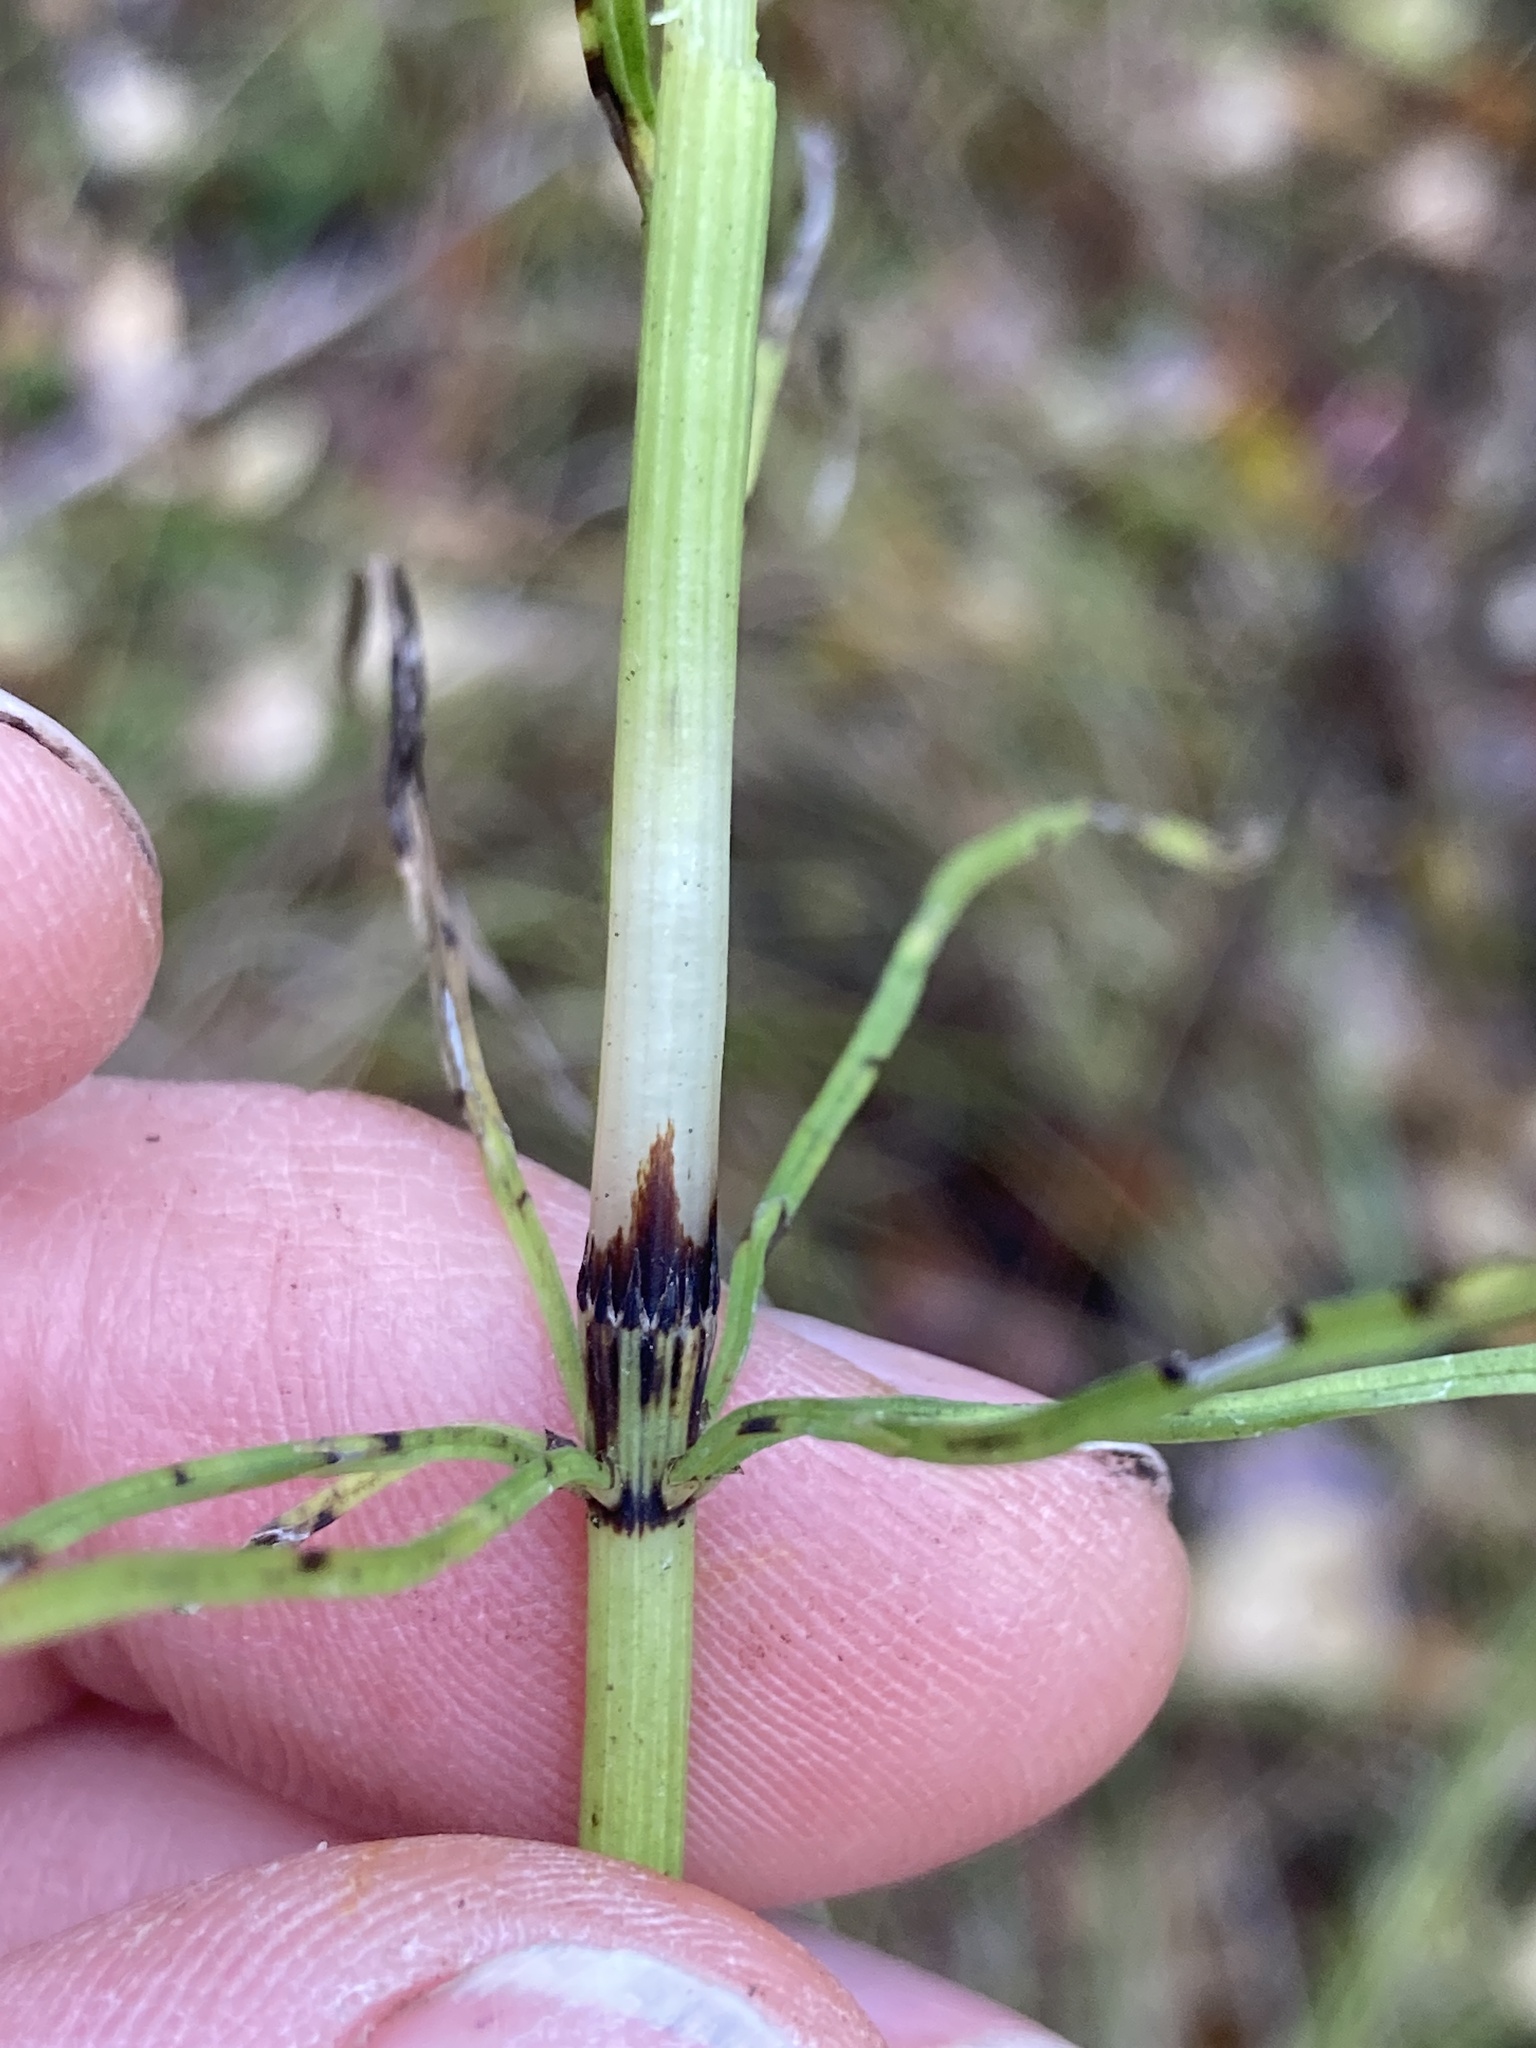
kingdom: Plantae
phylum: Tracheophyta
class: Polypodiopsida
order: Equisetales
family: Equisetaceae
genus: Equisetum
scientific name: Equisetum arvense
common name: Field horsetail
